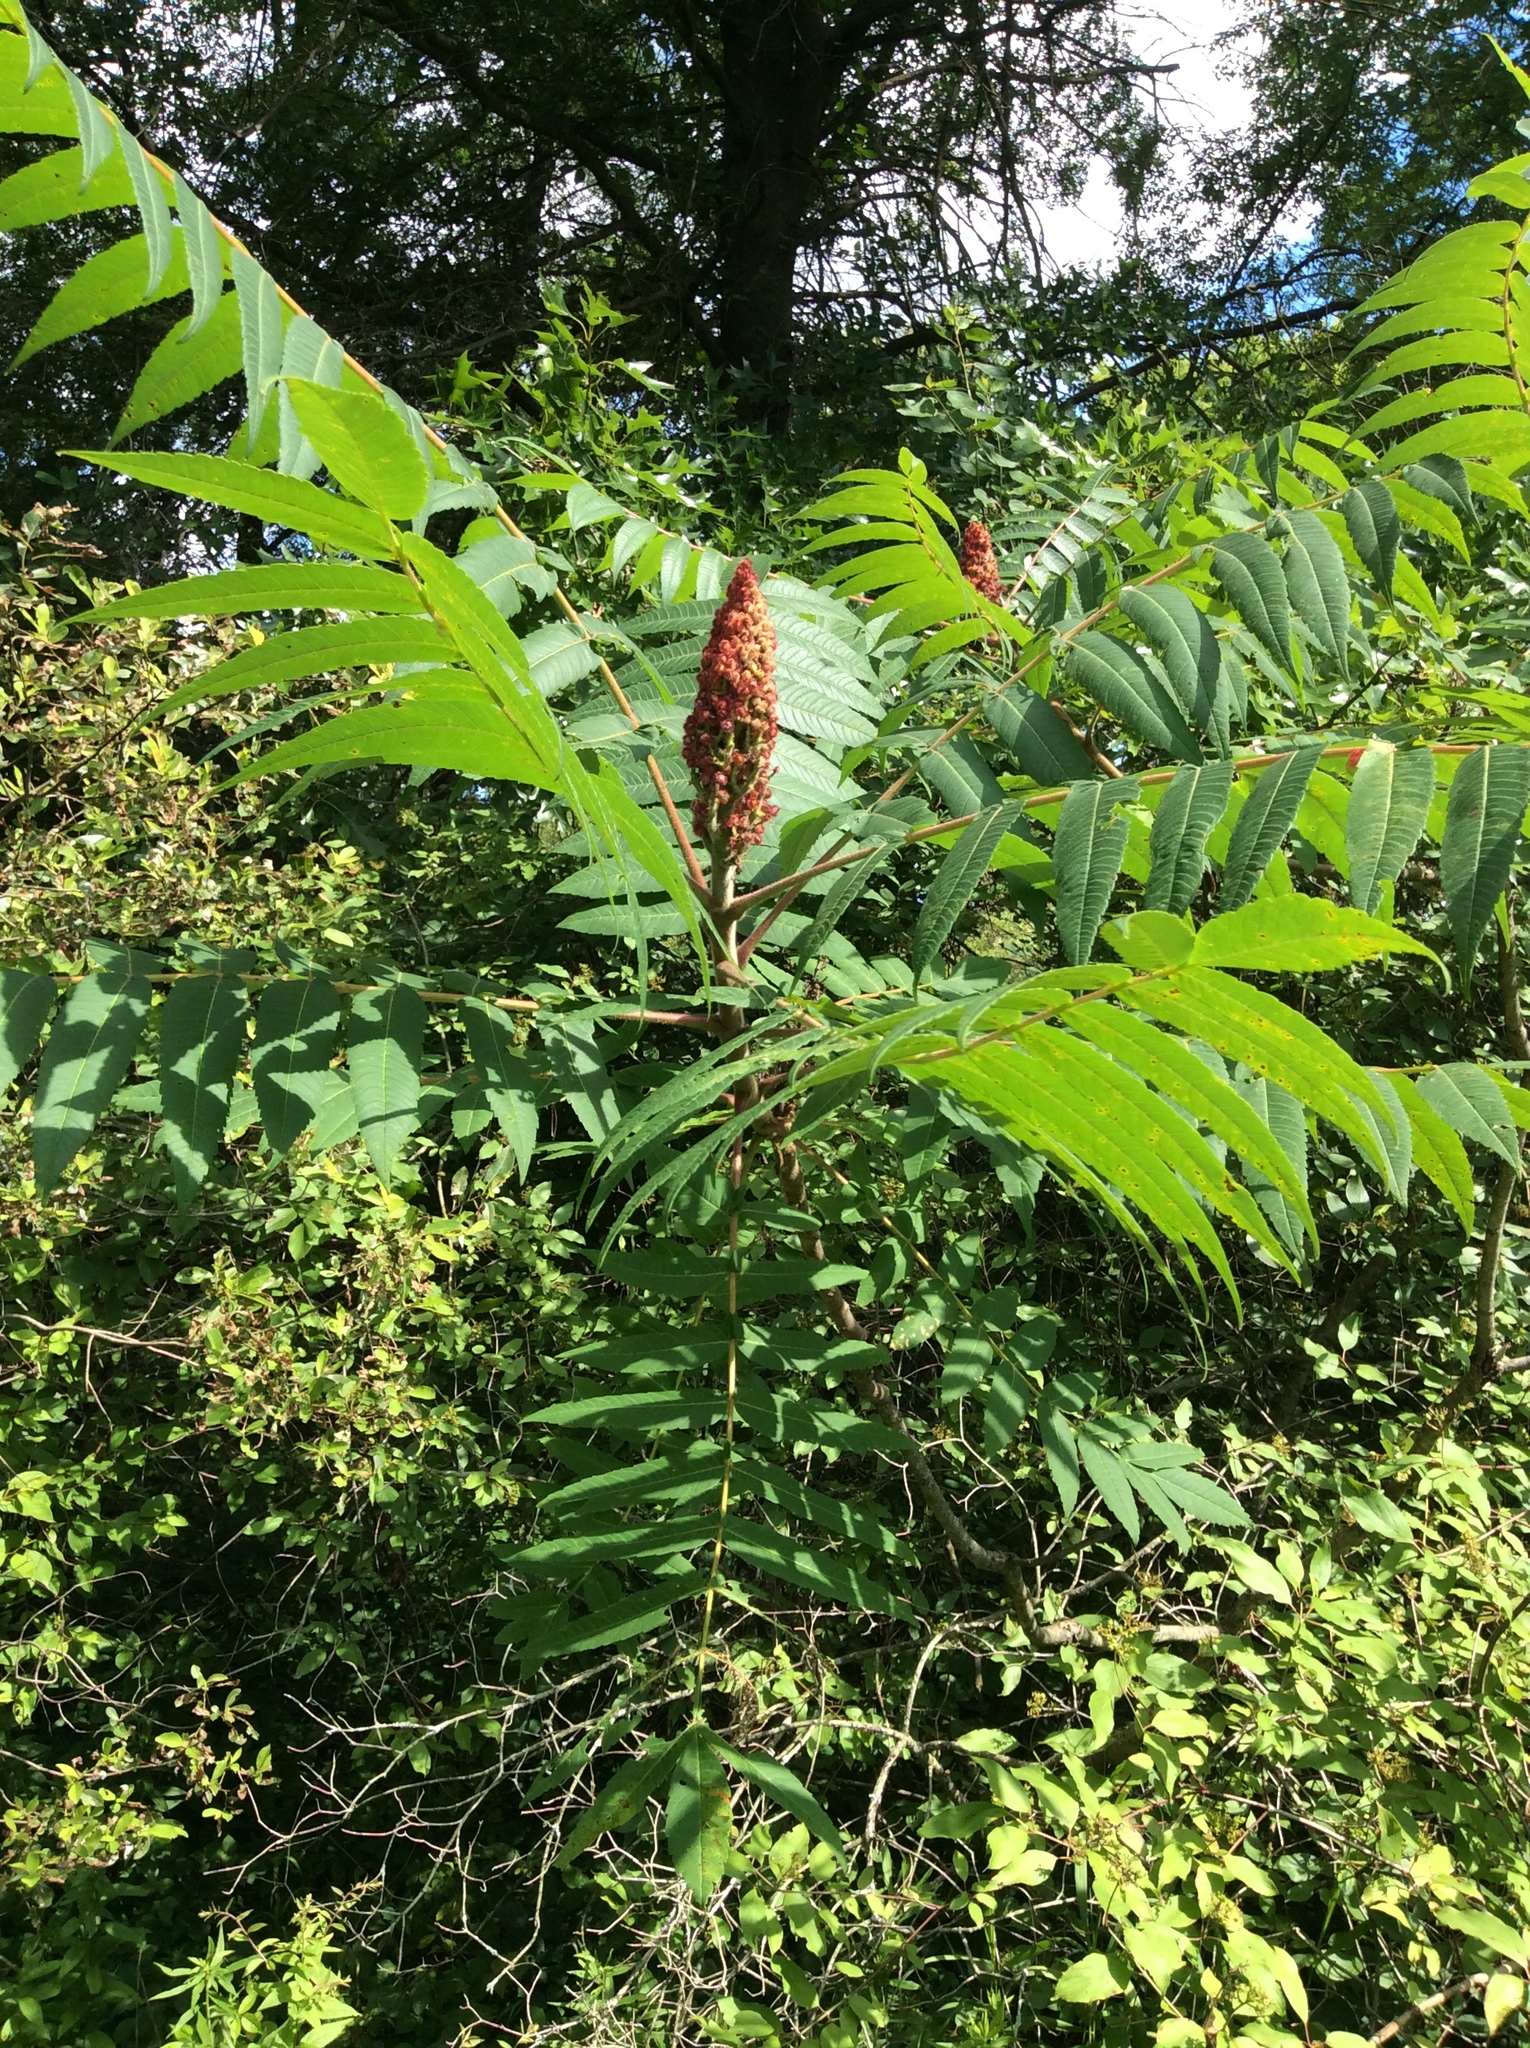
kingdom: Plantae
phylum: Tracheophyta
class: Magnoliopsida
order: Sapindales
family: Anacardiaceae
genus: Rhus
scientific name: Rhus typhina
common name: Staghorn sumac
